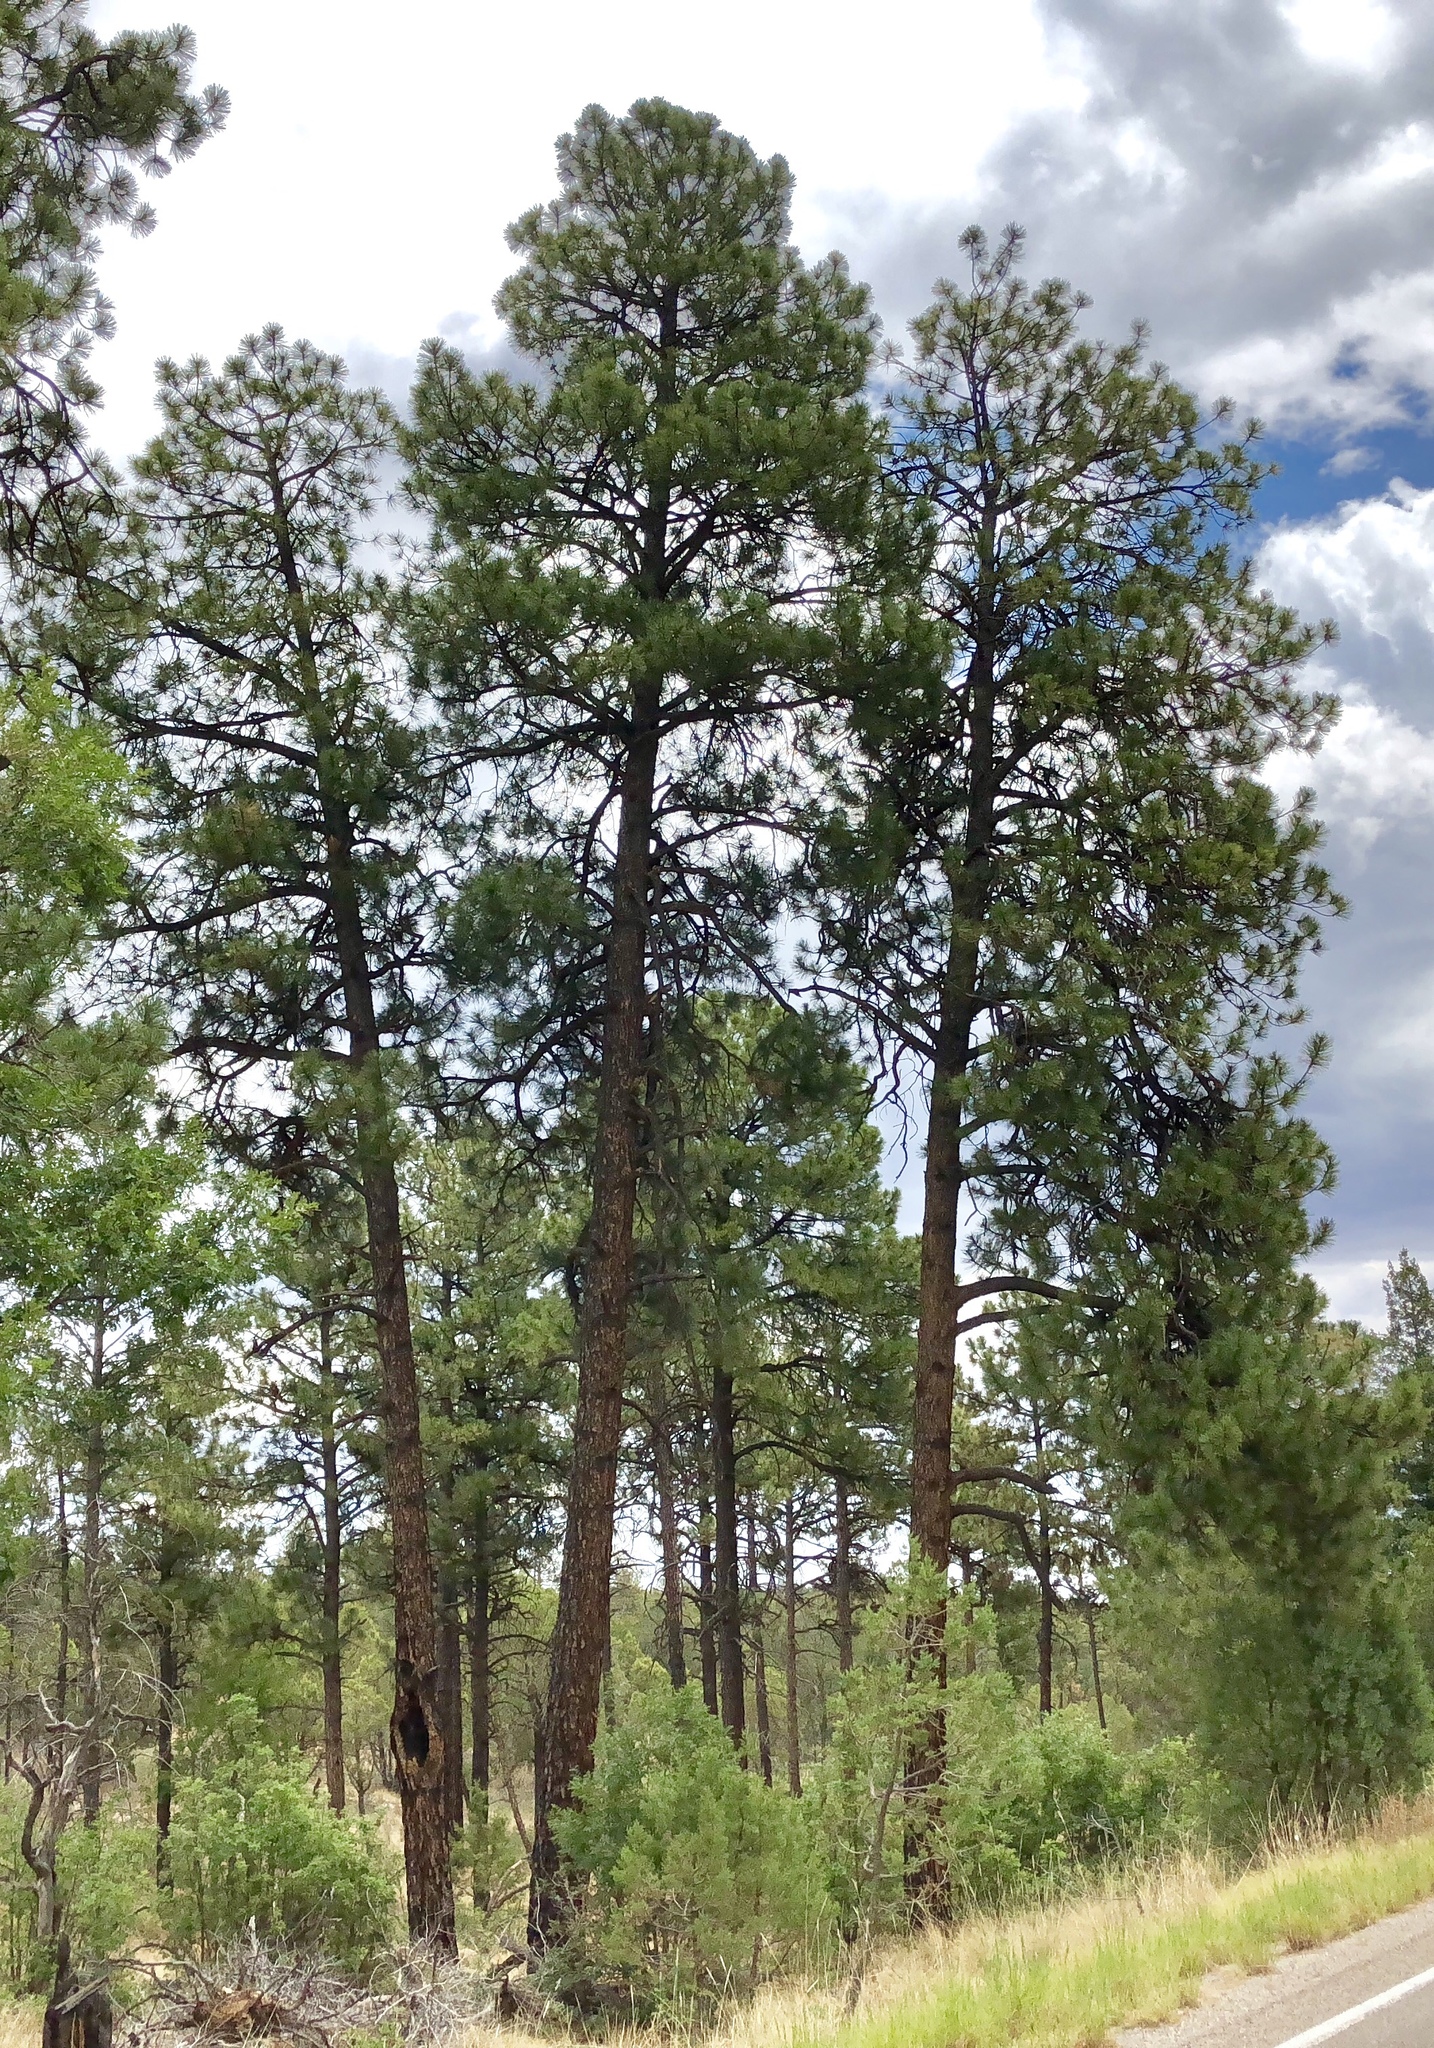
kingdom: Plantae
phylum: Tracheophyta
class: Pinopsida
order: Pinales
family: Pinaceae
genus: Pinus
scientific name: Pinus ponderosa
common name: Western yellow-pine
